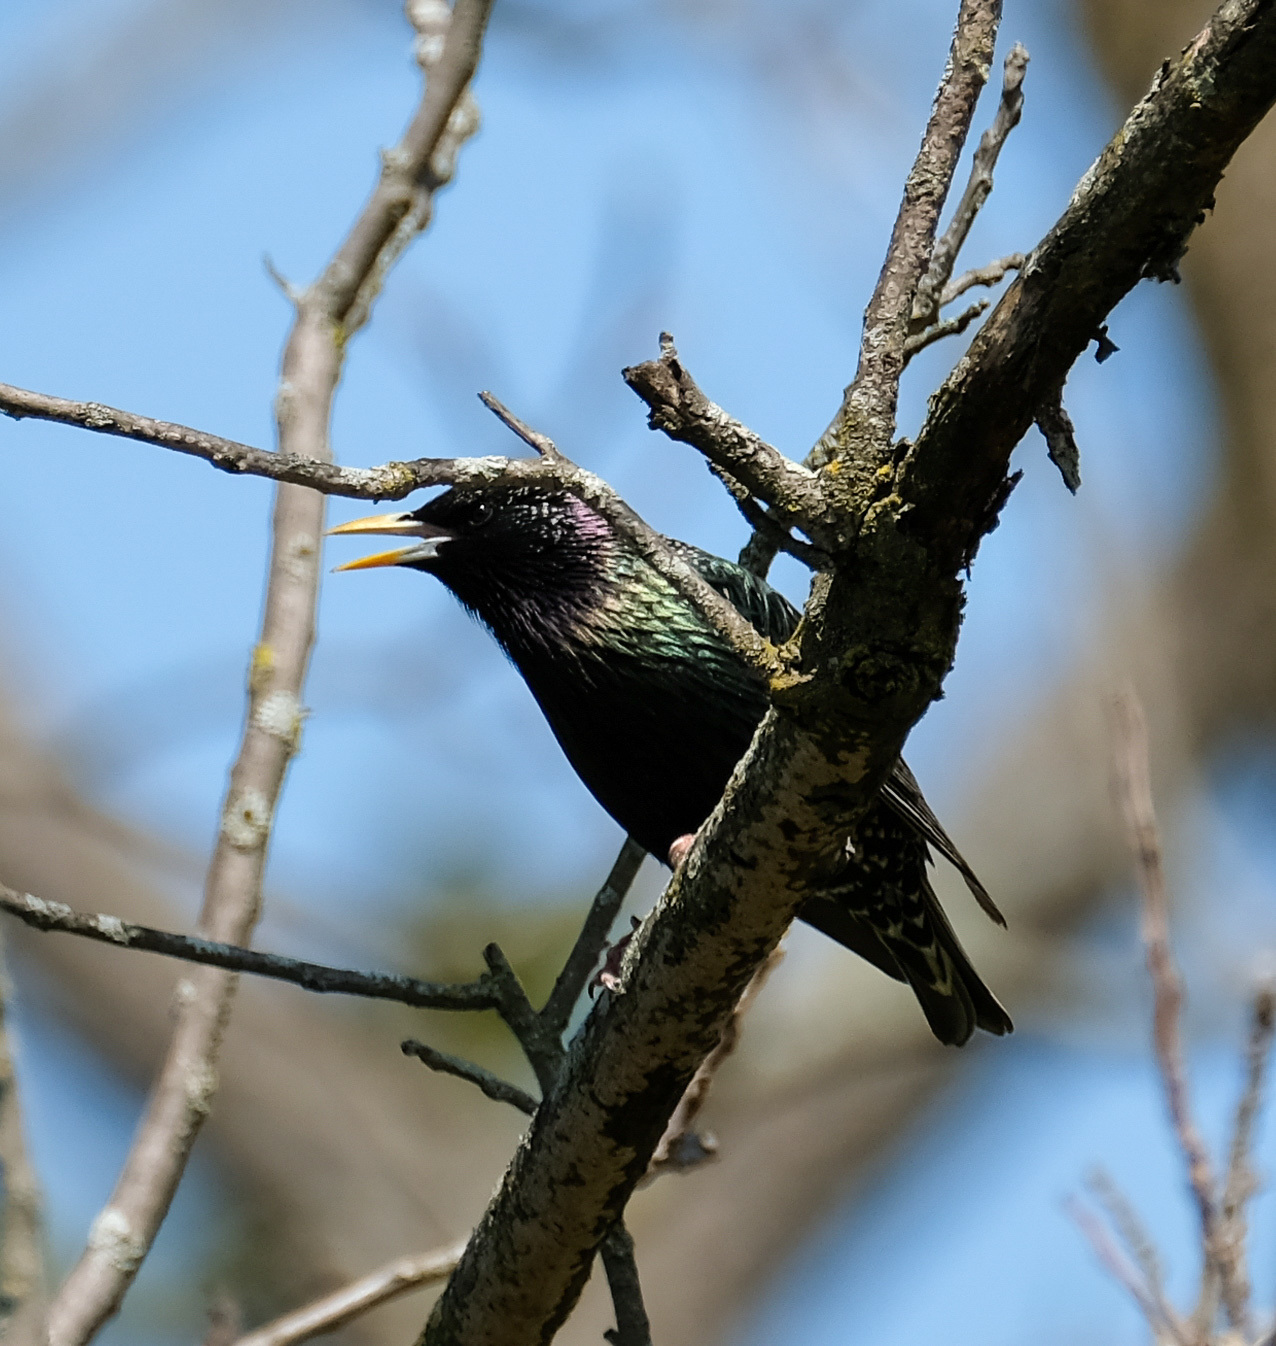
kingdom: Animalia
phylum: Chordata
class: Aves
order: Passeriformes
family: Sturnidae
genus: Sturnus
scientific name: Sturnus vulgaris
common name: Common starling
